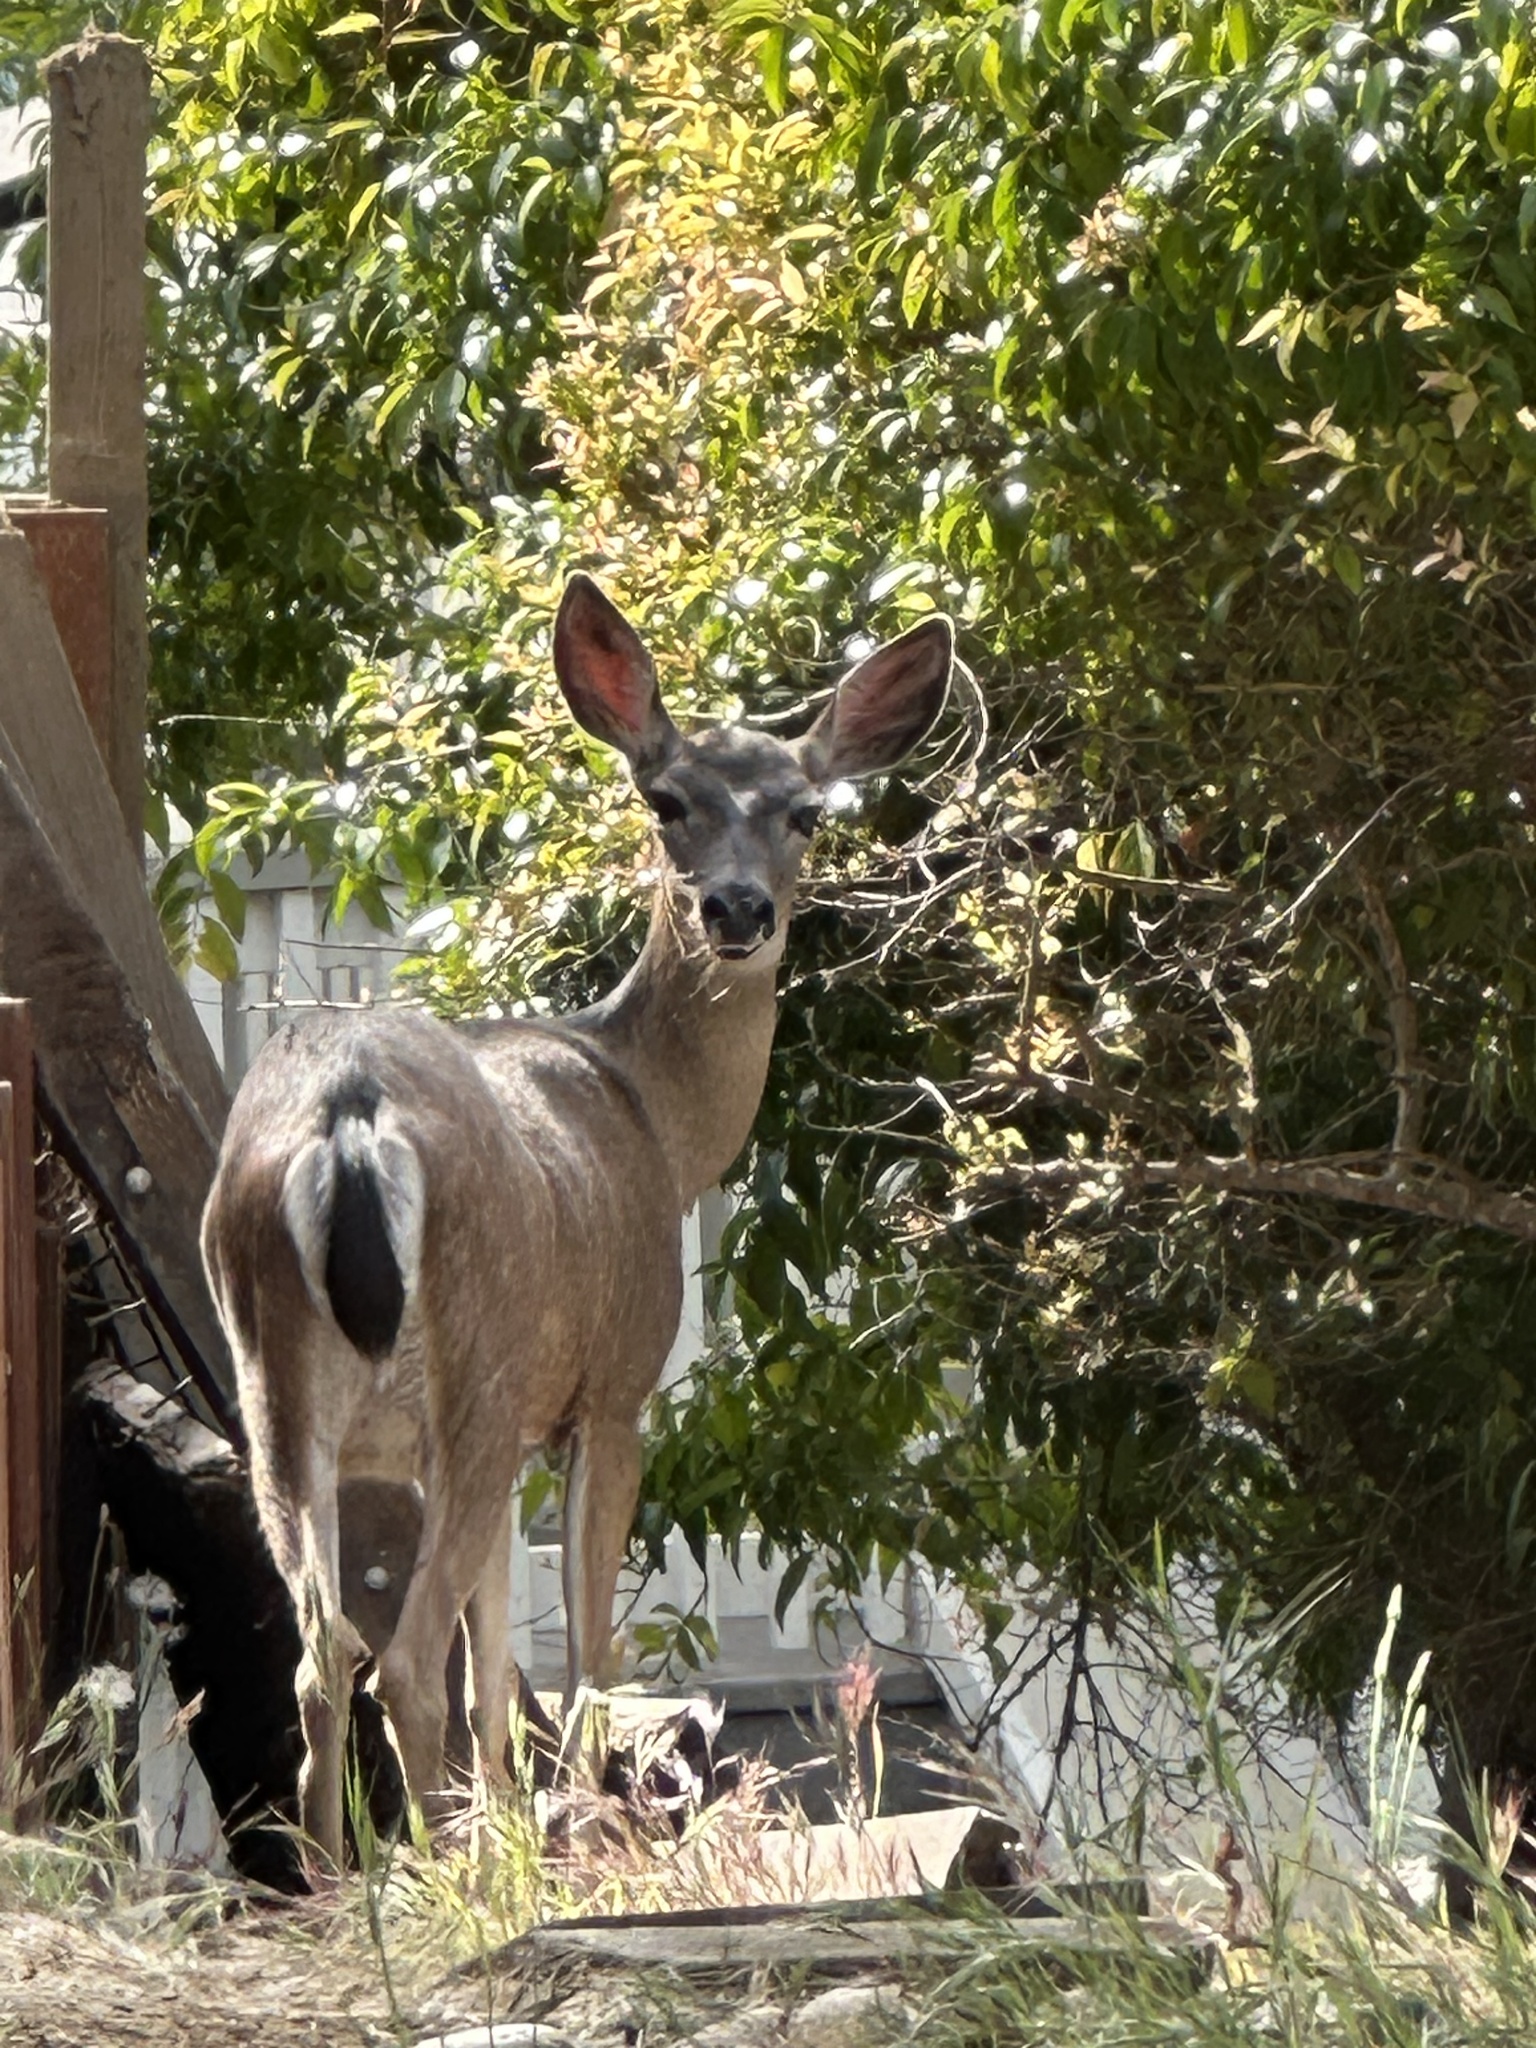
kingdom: Animalia
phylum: Chordata
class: Mammalia
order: Artiodactyla
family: Cervidae
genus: Odocoileus
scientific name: Odocoileus hemionus
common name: Mule deer
